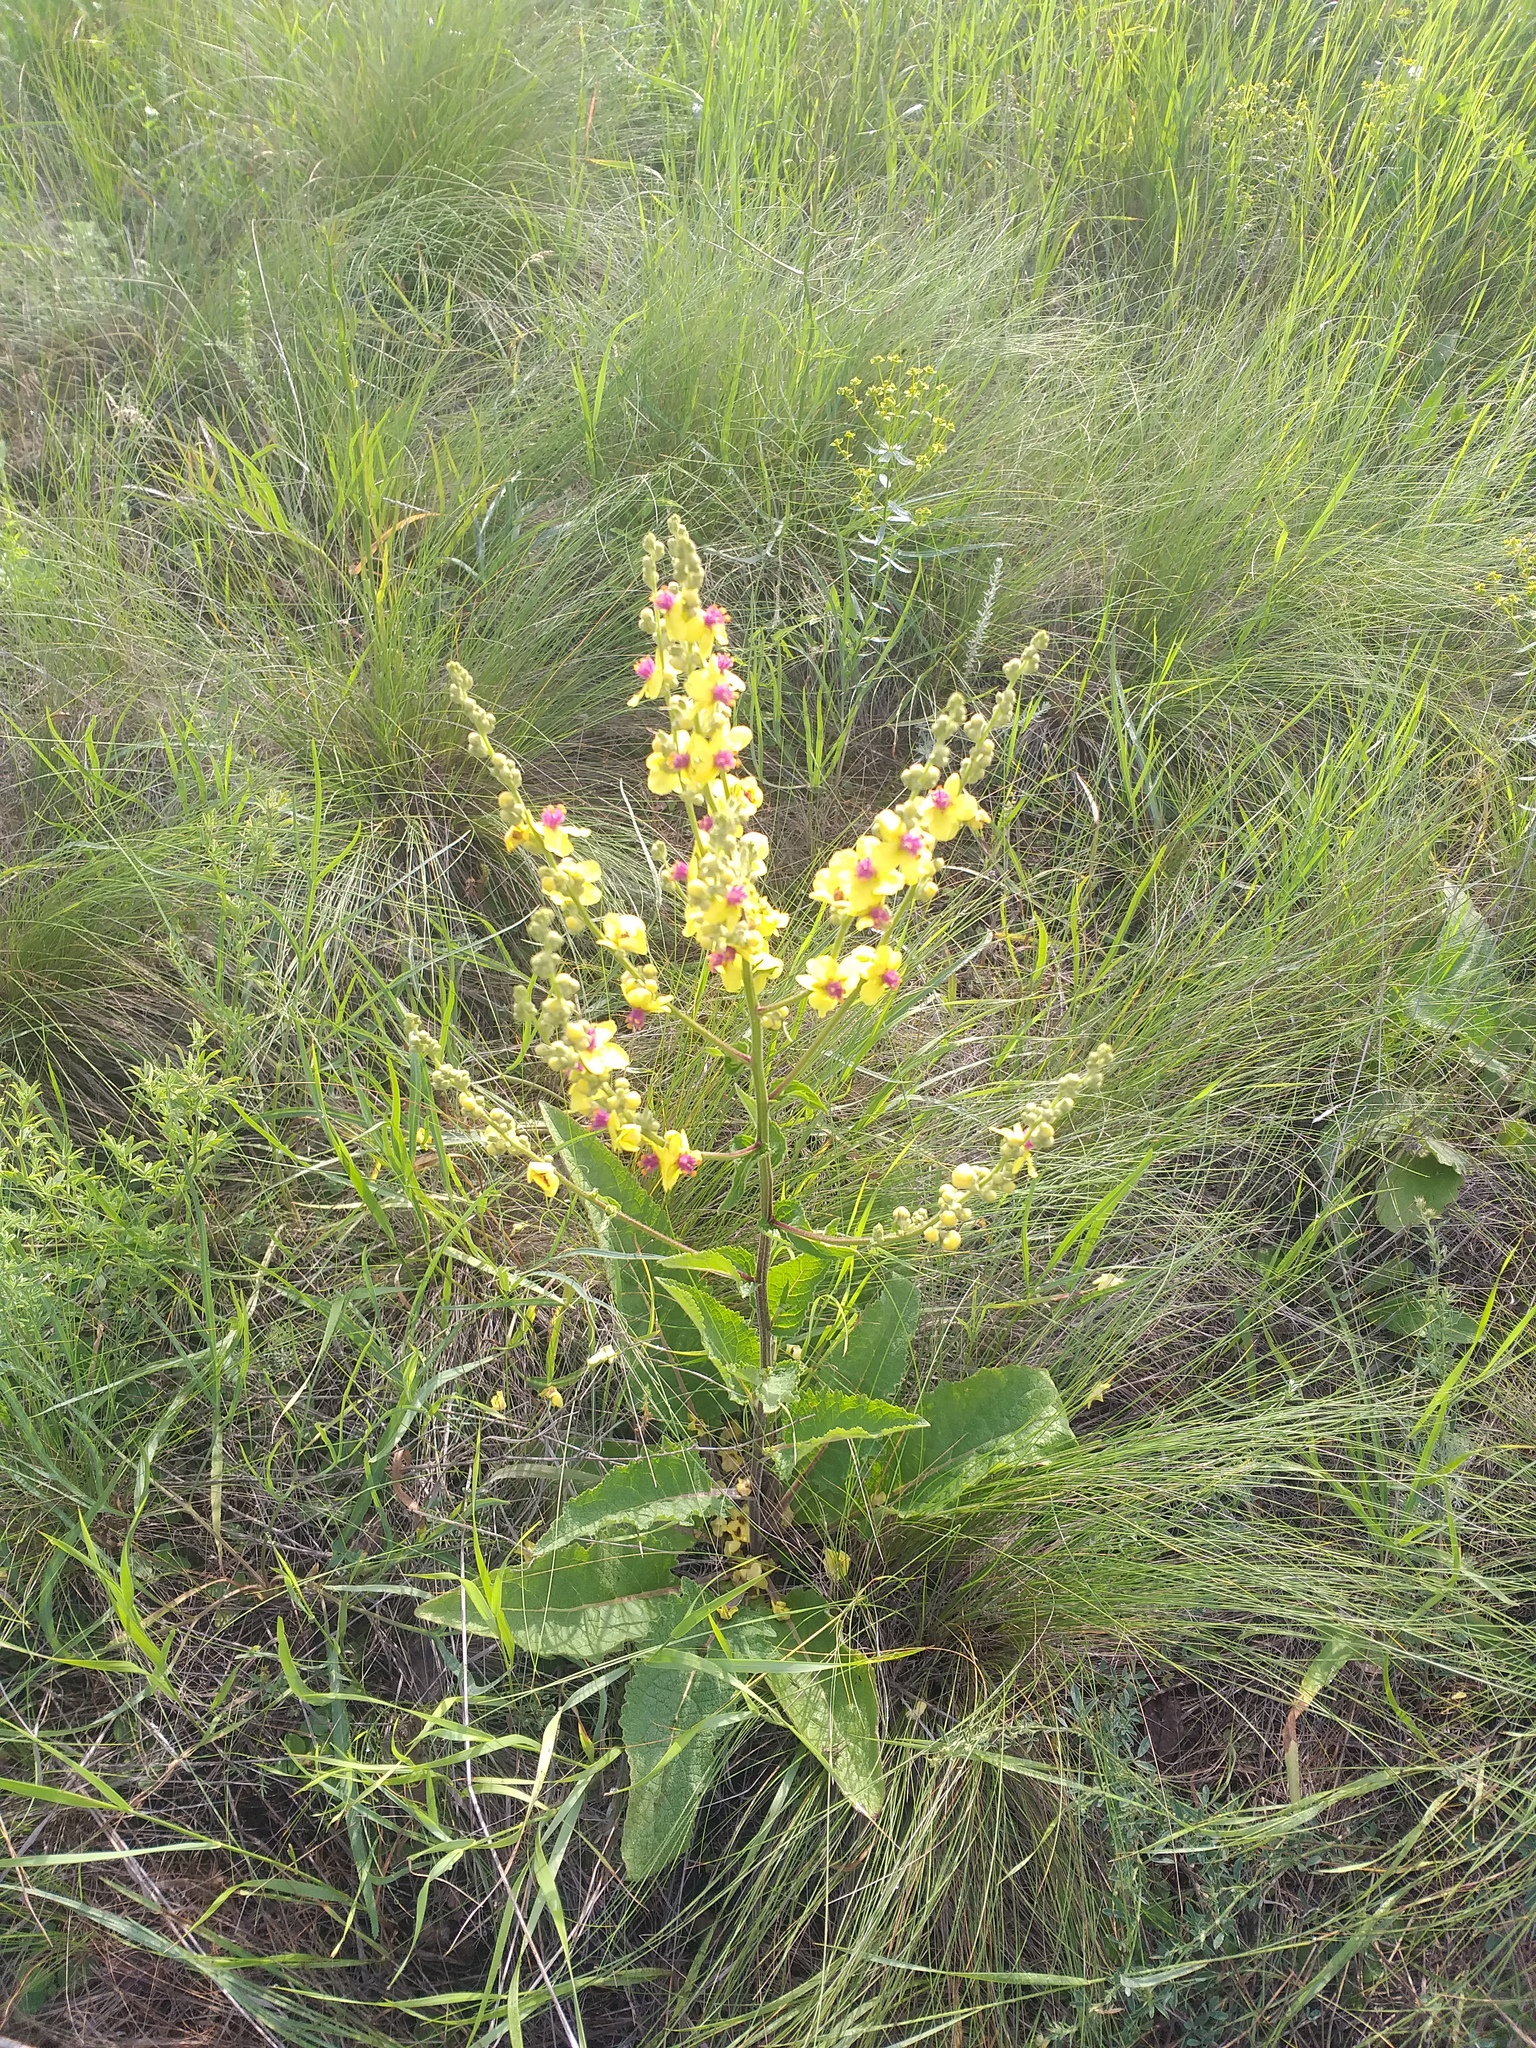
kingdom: Plantae
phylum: Tracheophyta
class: Magnoliopsida
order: Lamiales
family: Scrophulariaceae
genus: Verbascum
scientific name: Verbascum chaixii
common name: Nettle-leaved mullein
